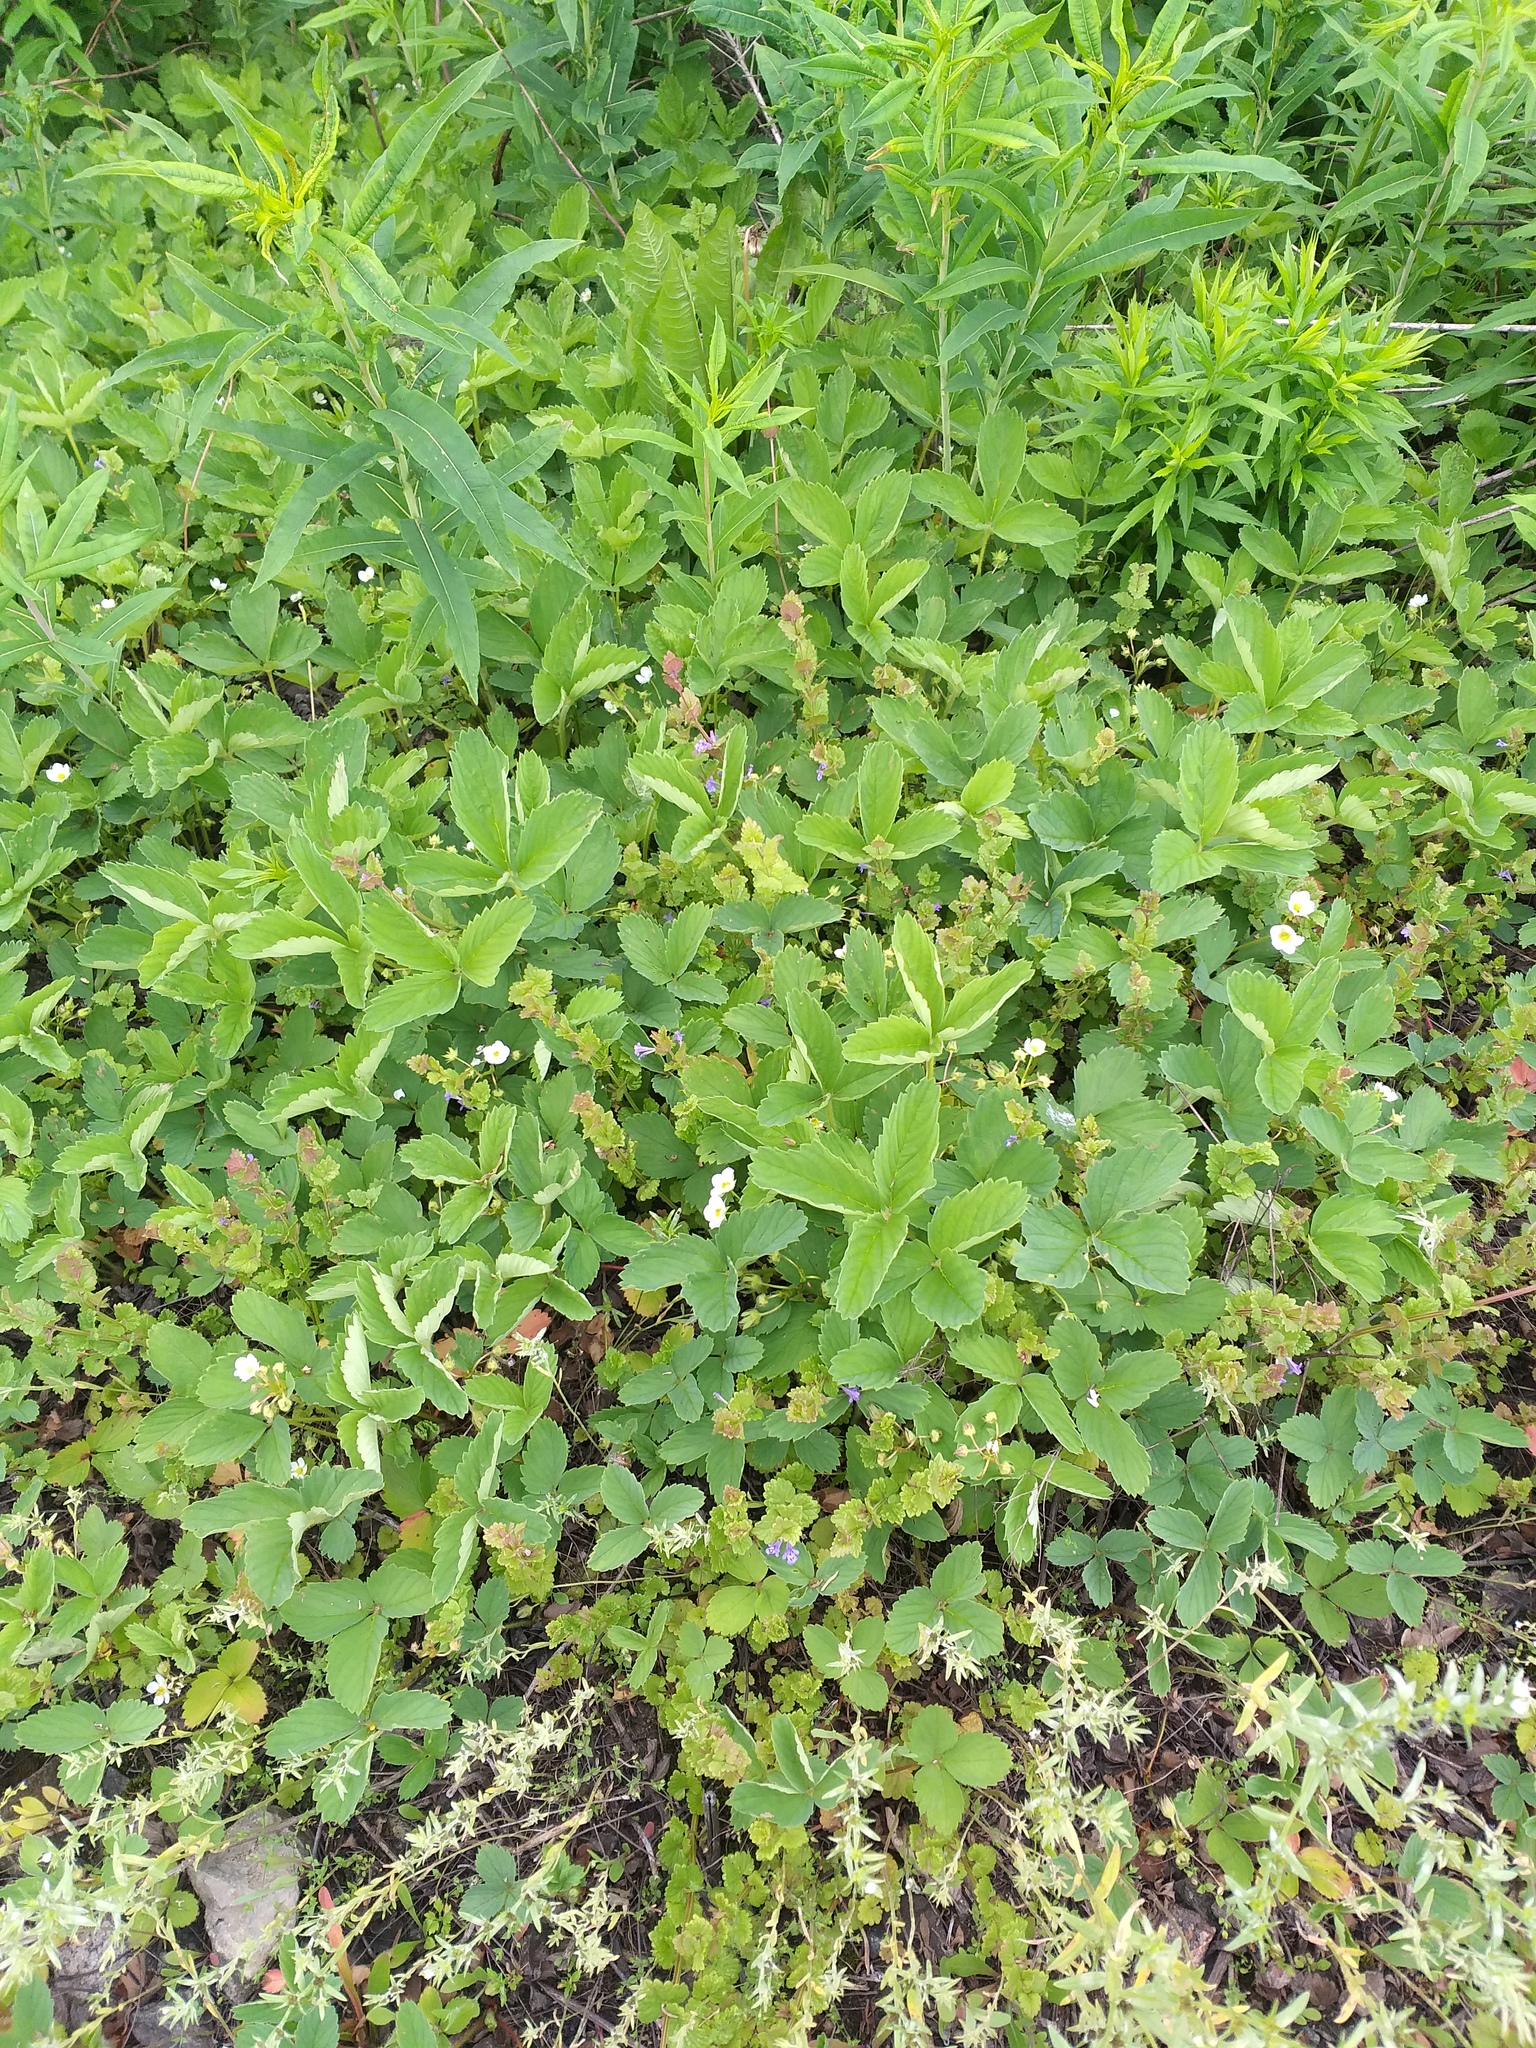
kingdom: Plantae
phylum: Tracheophyta
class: Magnoliopsida
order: Rosales
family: Rosaceae
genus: Fragaria
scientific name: Fragaria ananassa
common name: Garden strawberry
